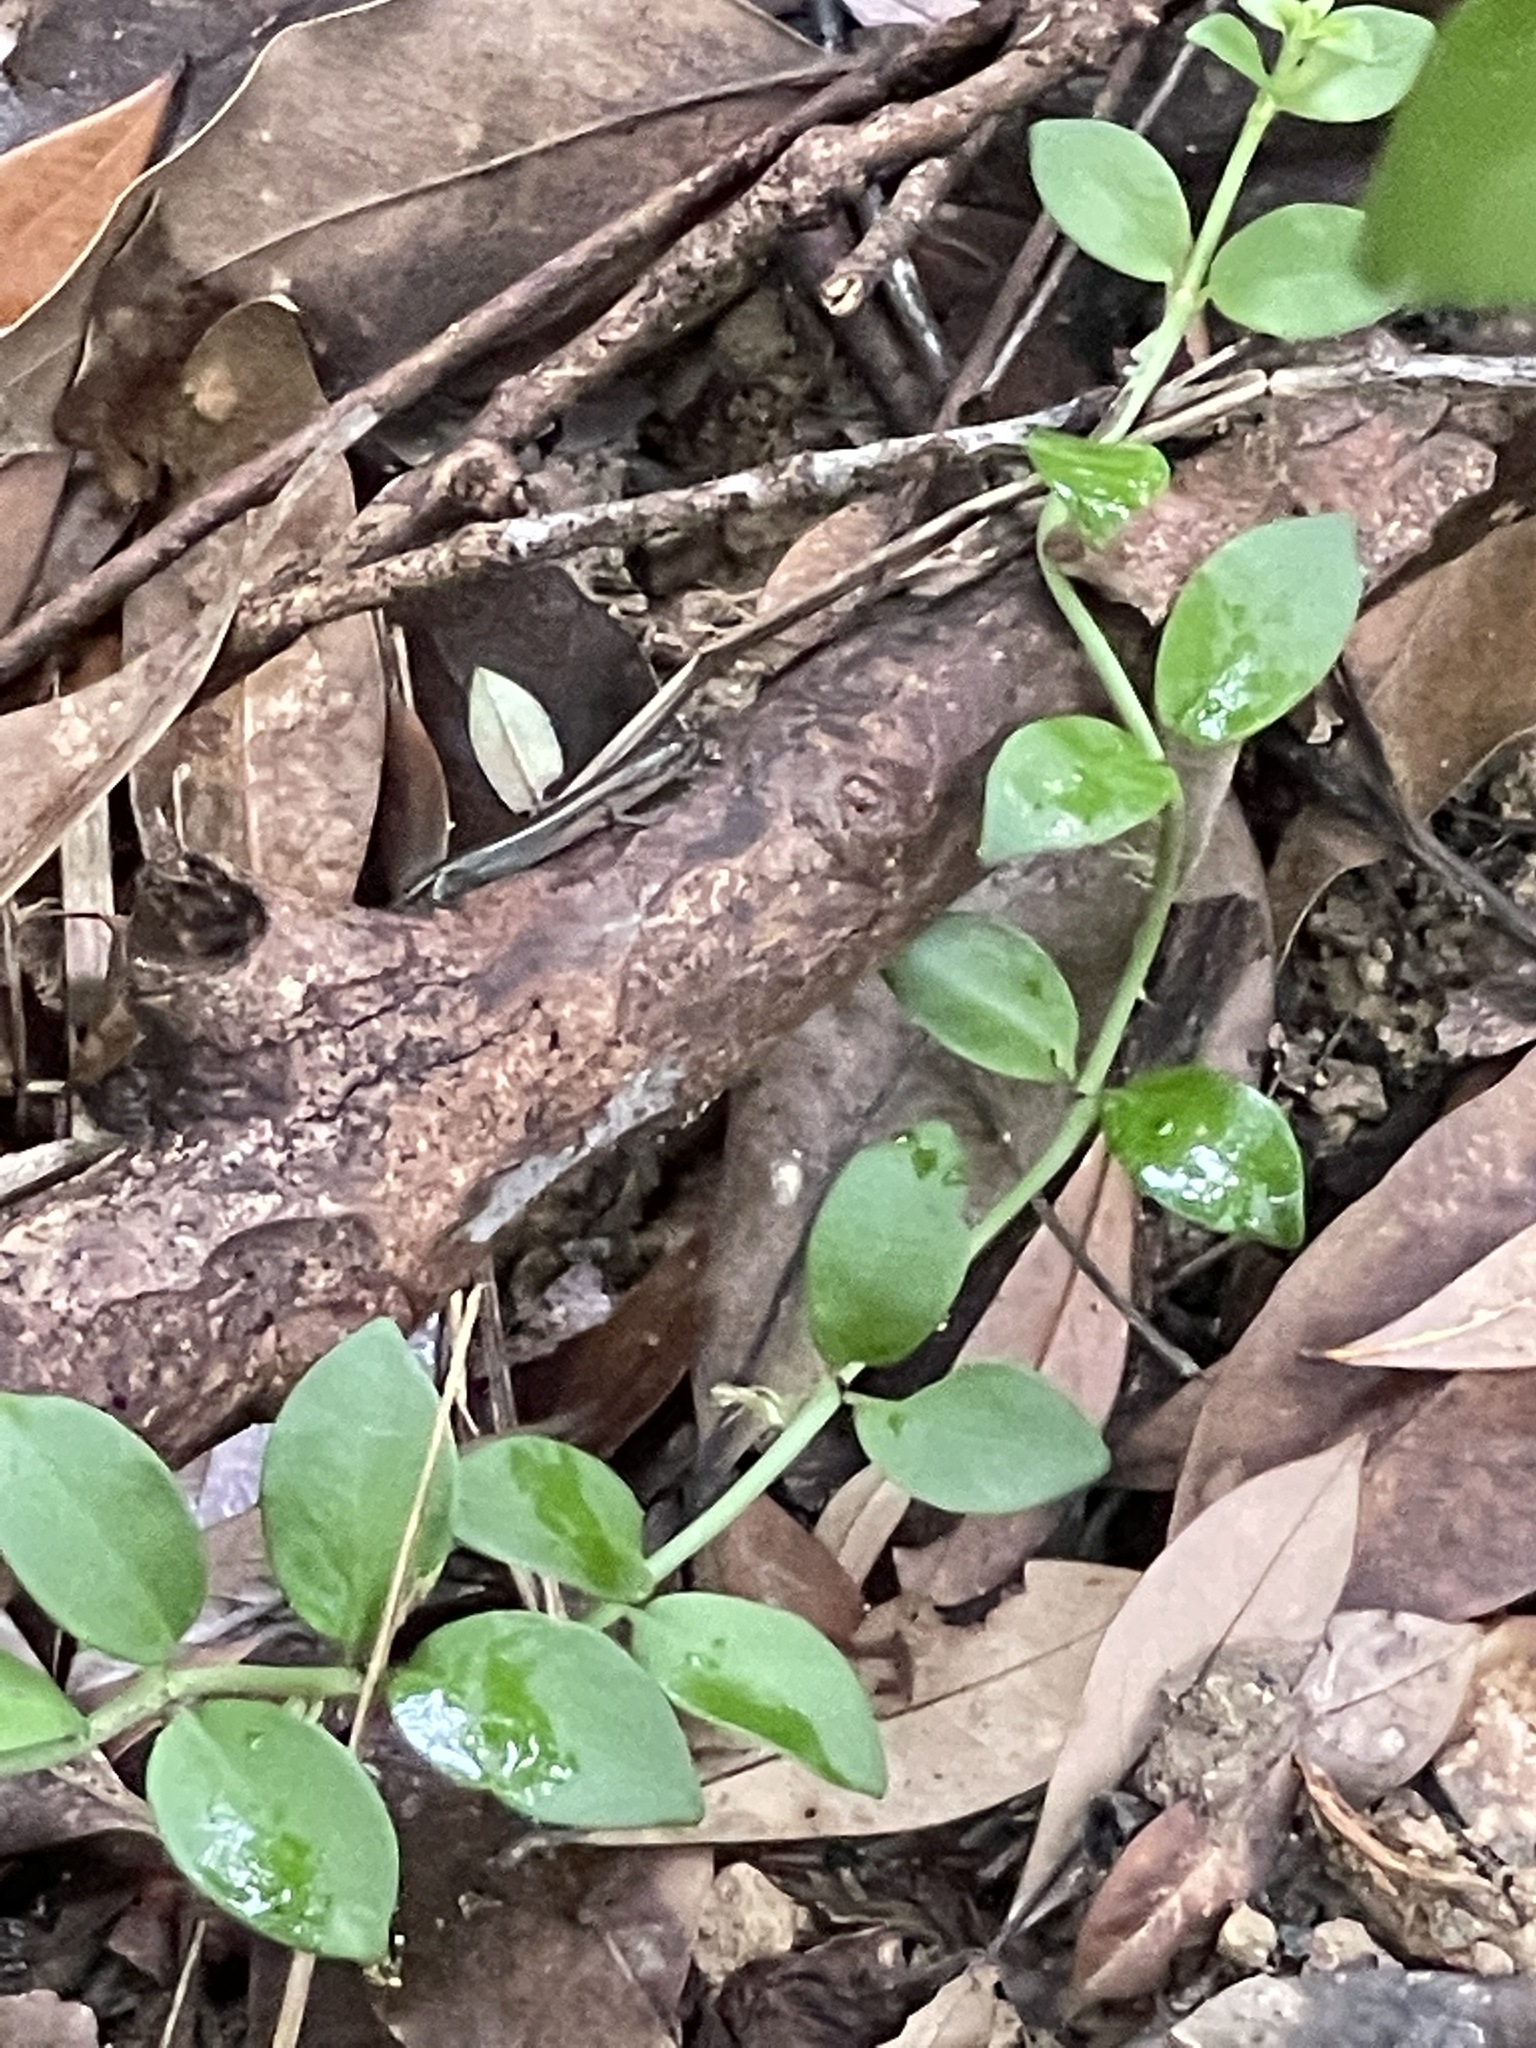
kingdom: Animalia
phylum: Chordata
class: Squamata
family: Scincidae
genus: Scincella
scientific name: Scincella reevesii
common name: Reeves’ smooth gecko
